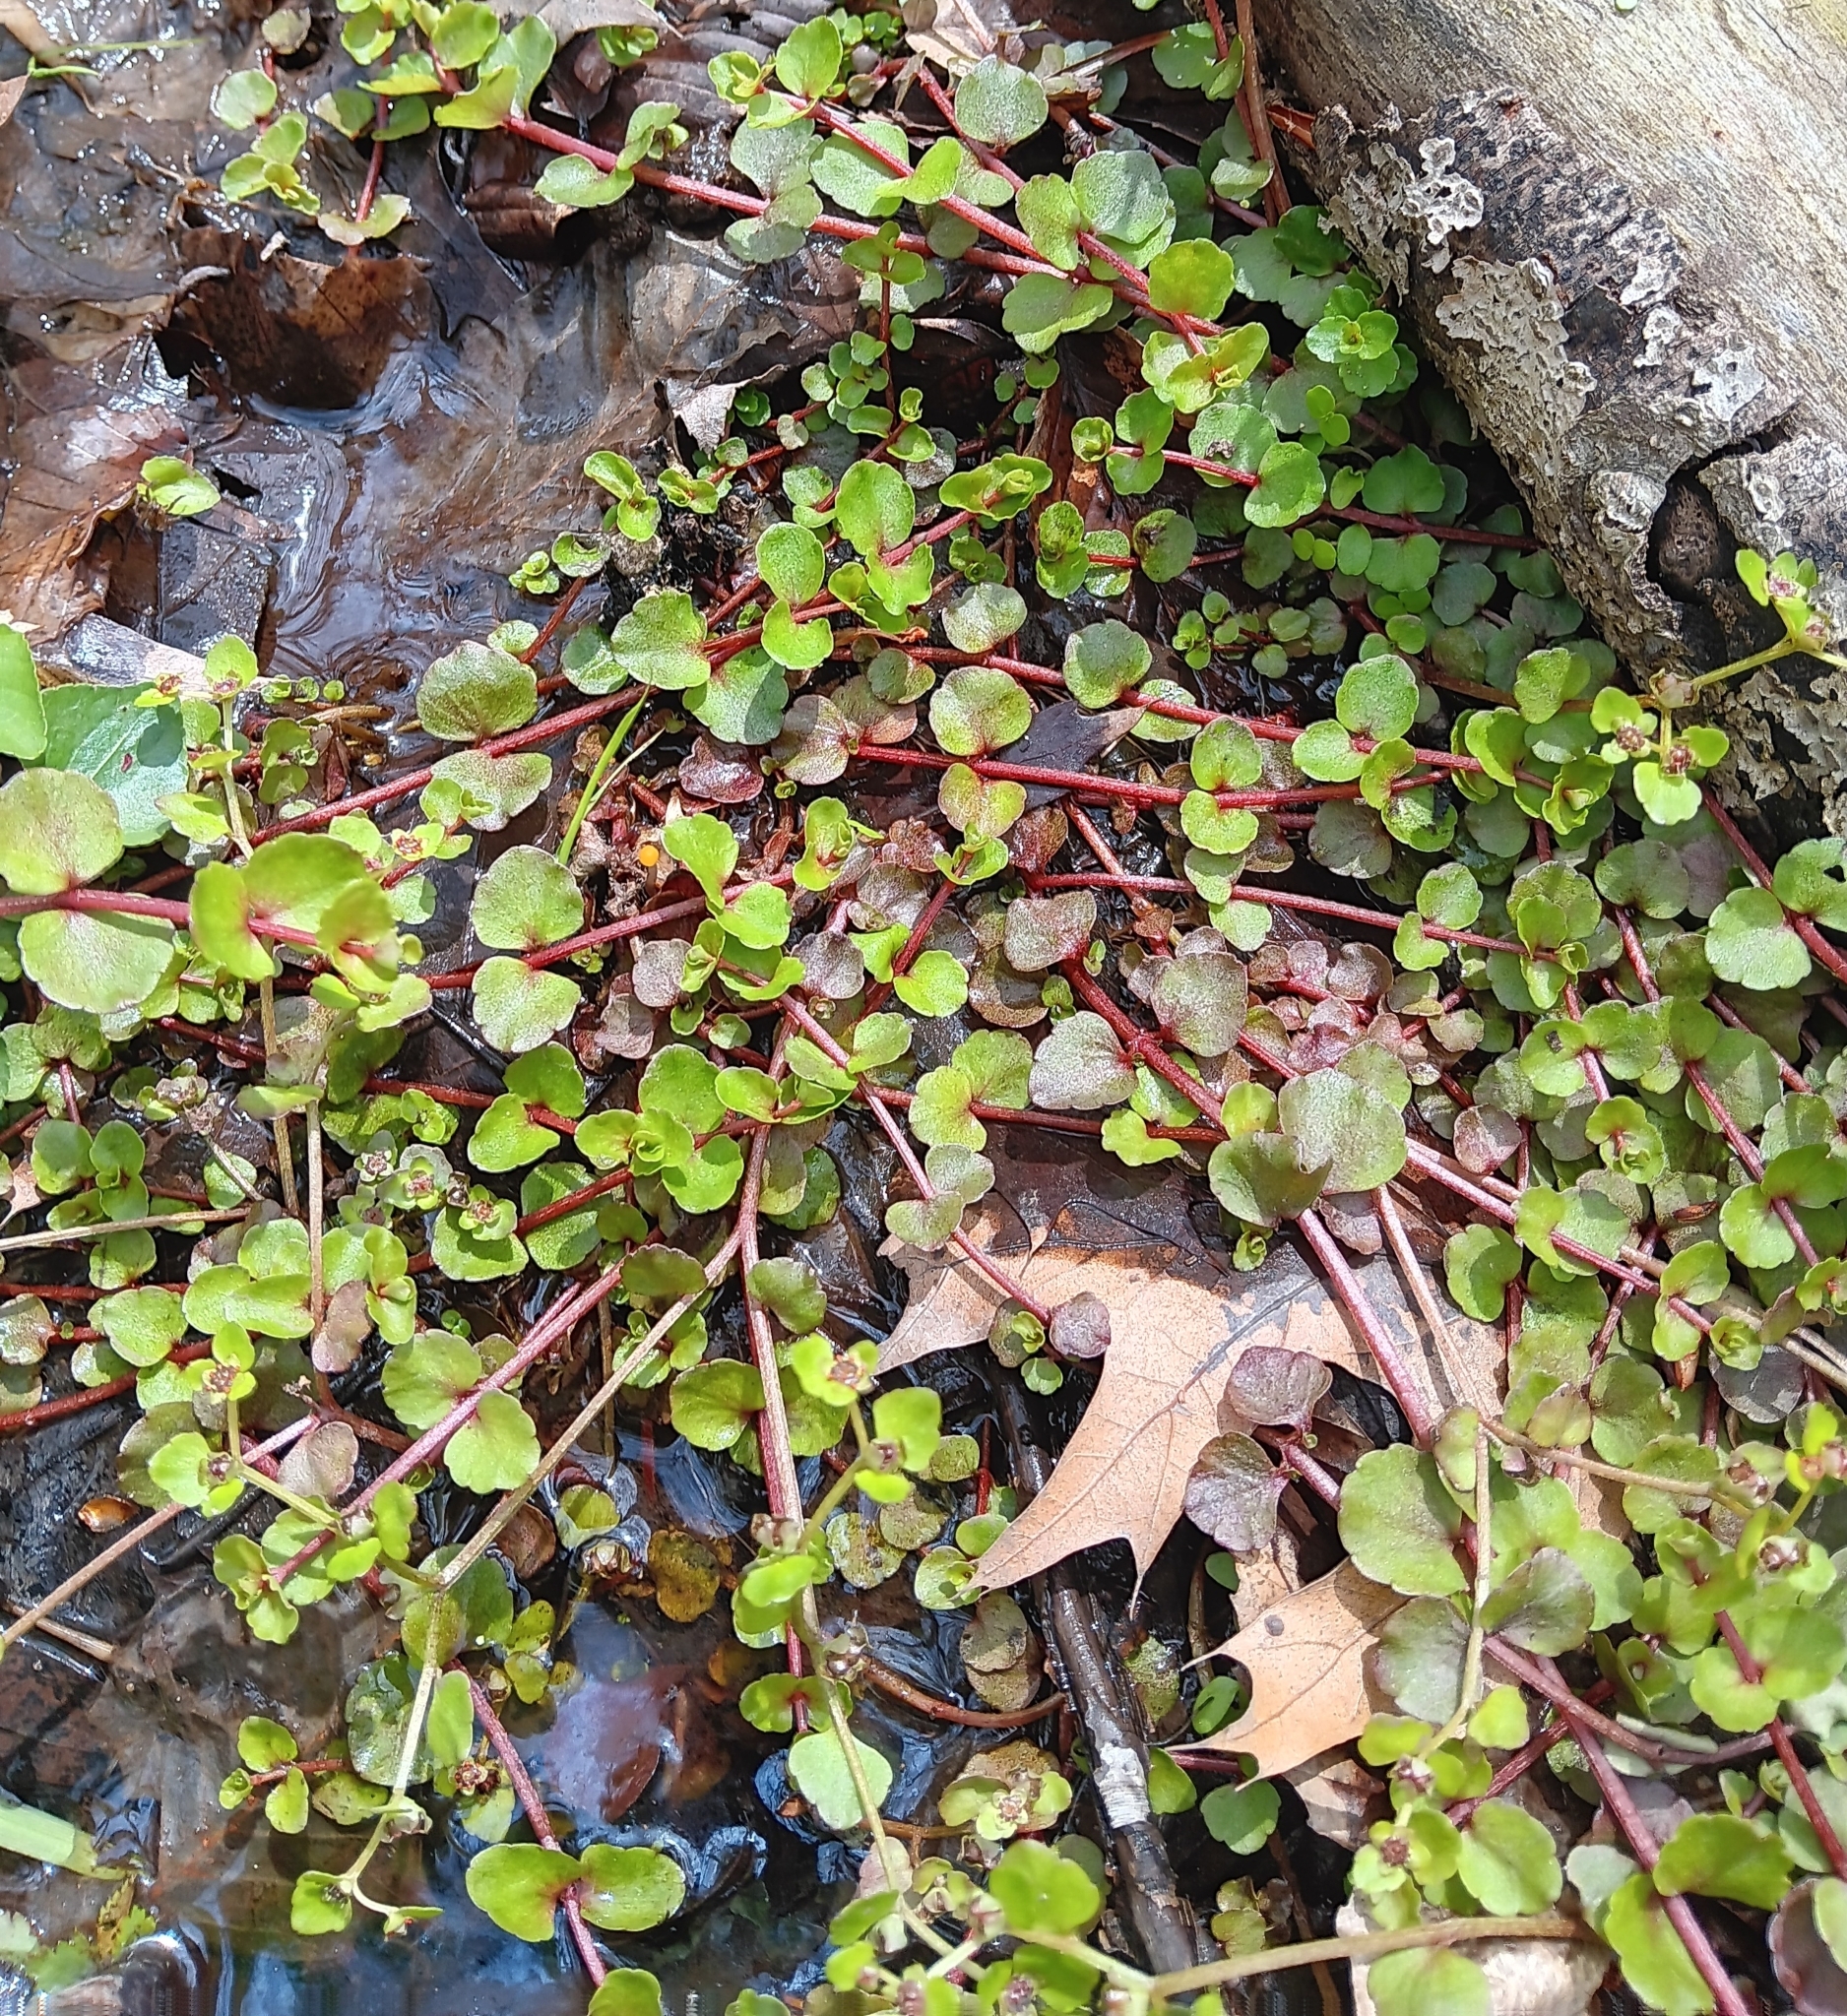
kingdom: Plantae
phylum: Tracheophyta
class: Magnoliopsida
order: Saxifragales
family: Saxifragaceae
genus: Chrysosplenium
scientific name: Chrysosplenium americanum
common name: American golden-saxifrage
